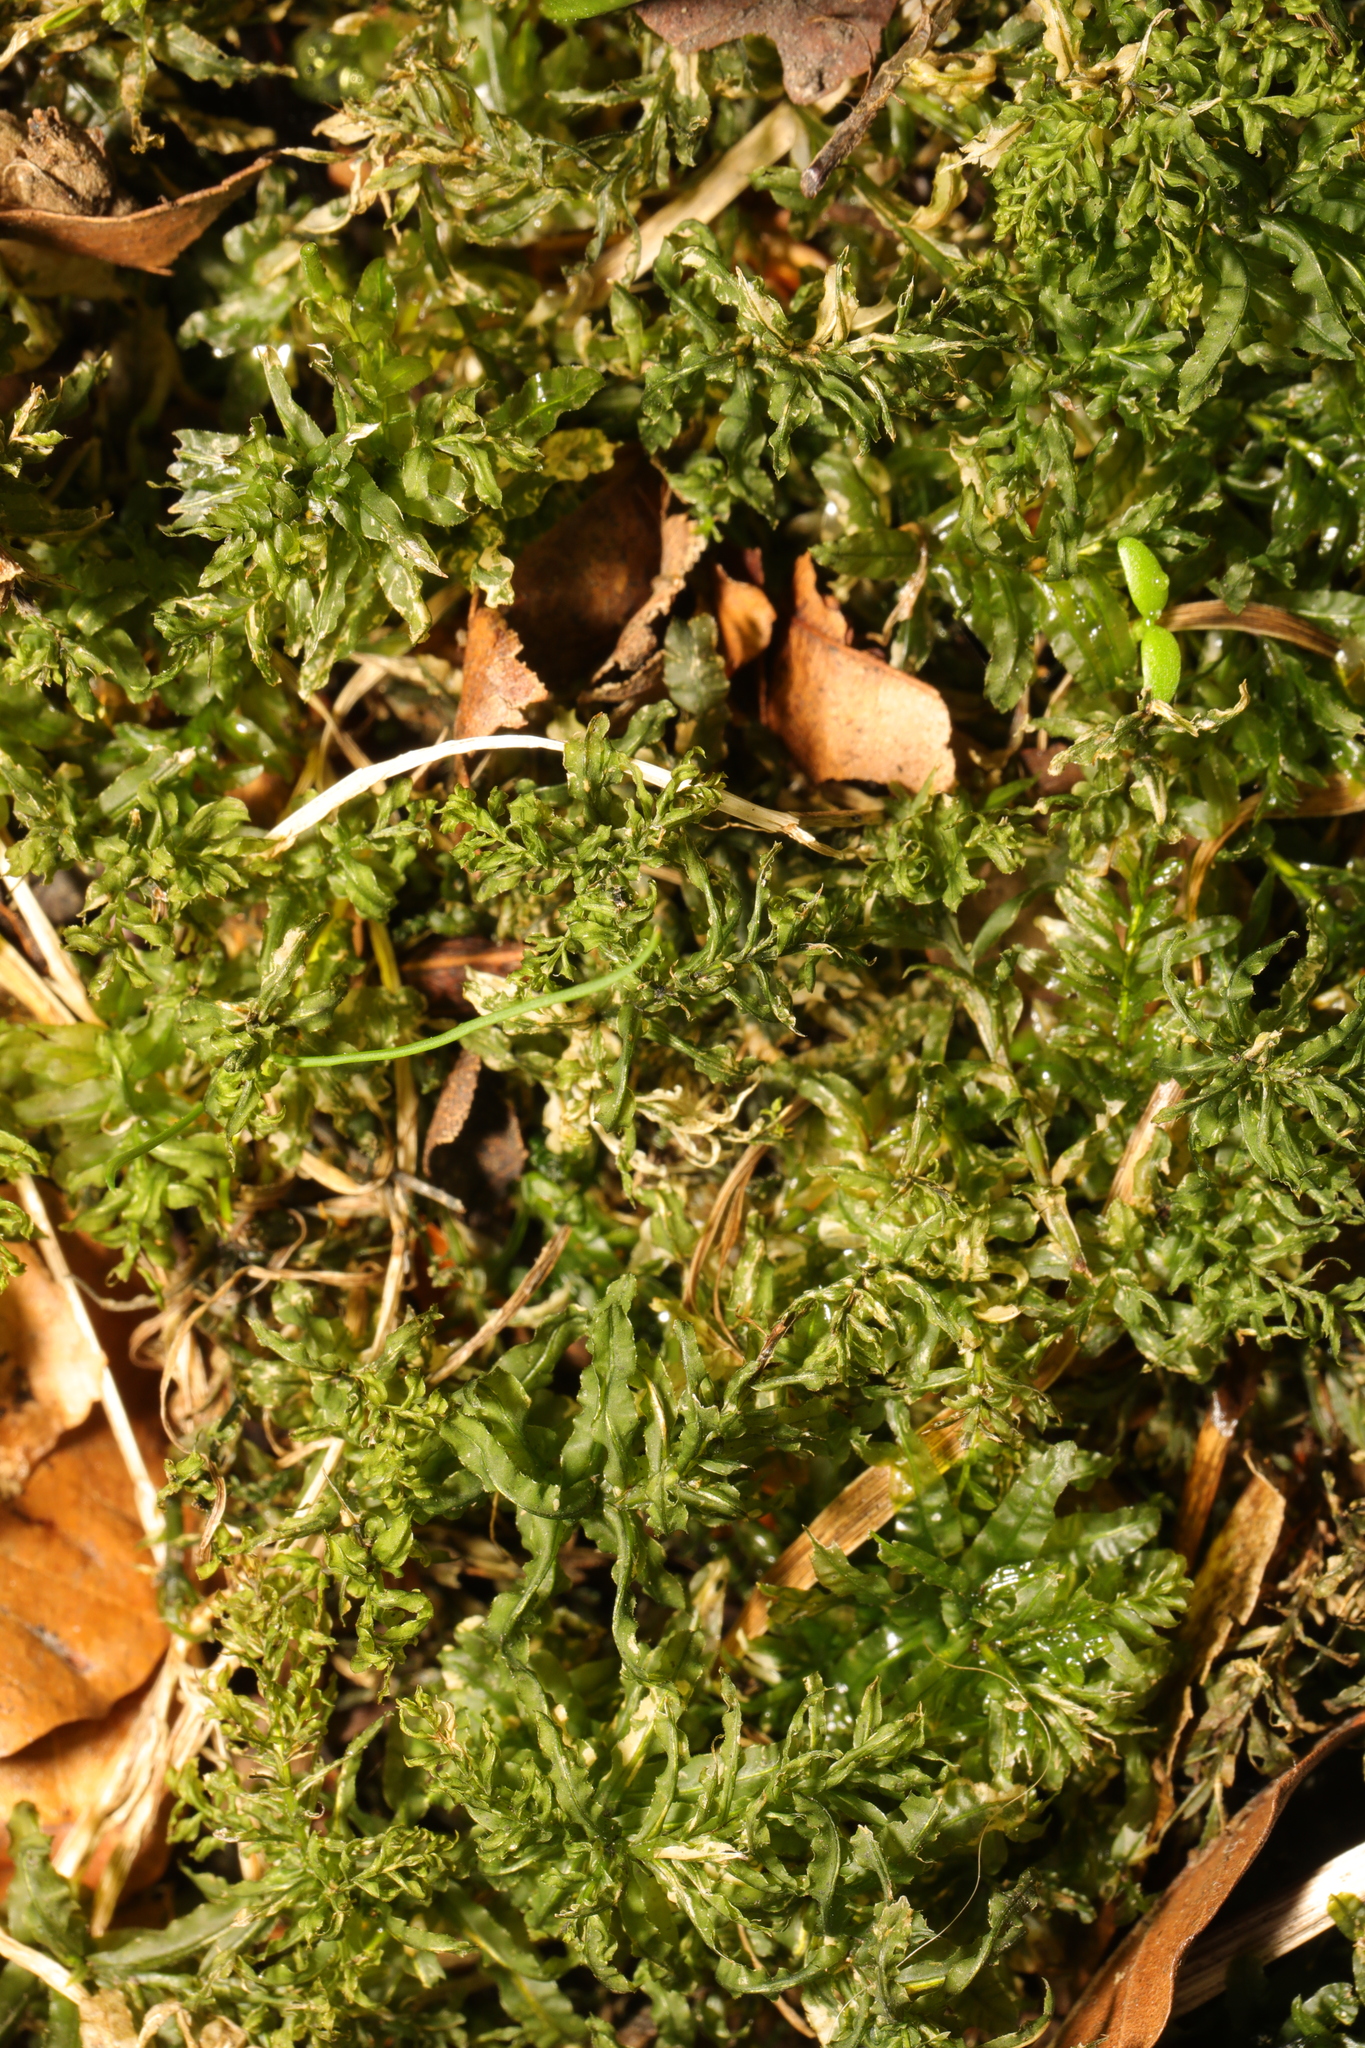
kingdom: Plantae
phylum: Bryophyta
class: Bryopsida
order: Bryales
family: Mniaceae
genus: Plagiomnium
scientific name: Plagiomnium undulatum
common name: Hart's-tongue thyme-moss
